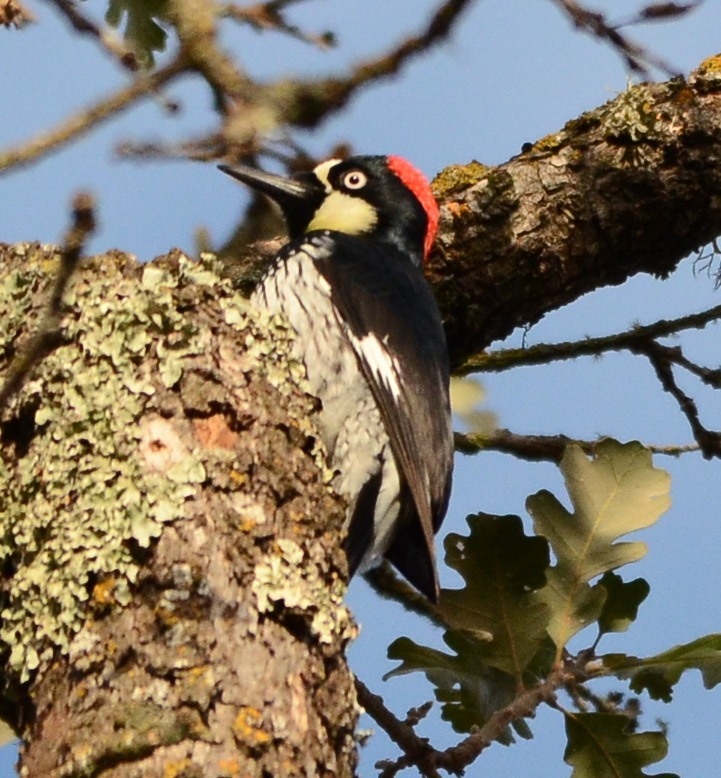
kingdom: Animalia
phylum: Chordata
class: Aves
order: Piciformes
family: Picidae
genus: Melanerpes
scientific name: Melanerpes formicivorus
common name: Acorn woodpecker
